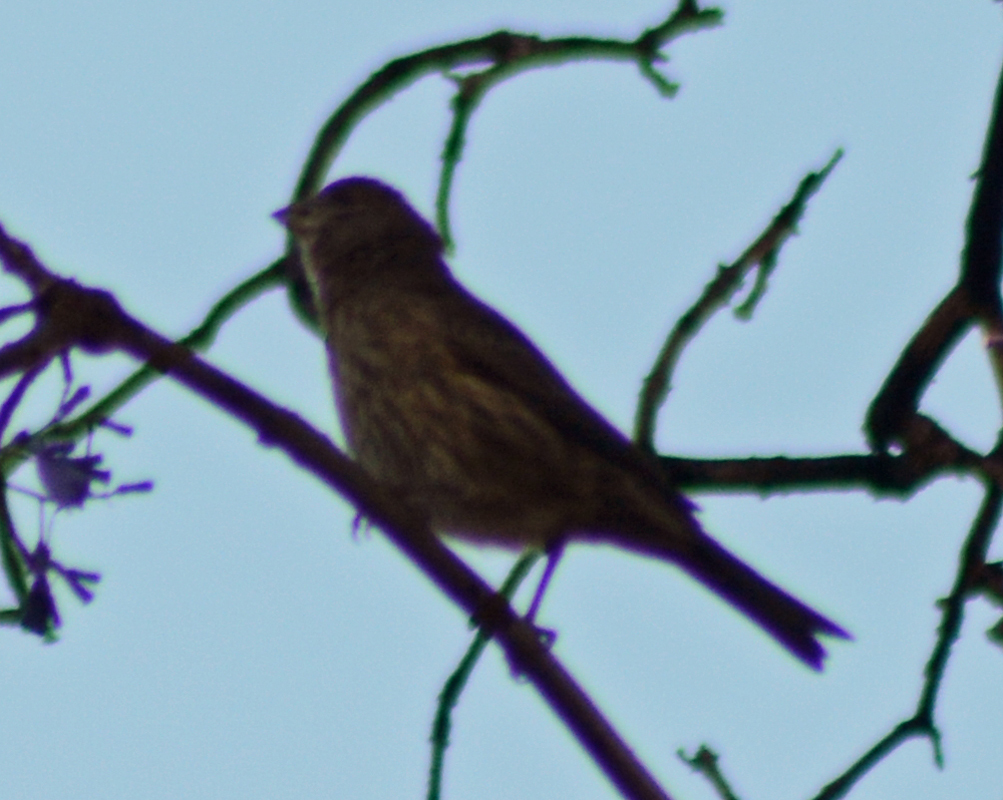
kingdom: Animalia
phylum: Chordata
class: Aves
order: Passeriformes
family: Fringillidae
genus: Haemorhous
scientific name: Haemorhous mexicanus
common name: House finch
